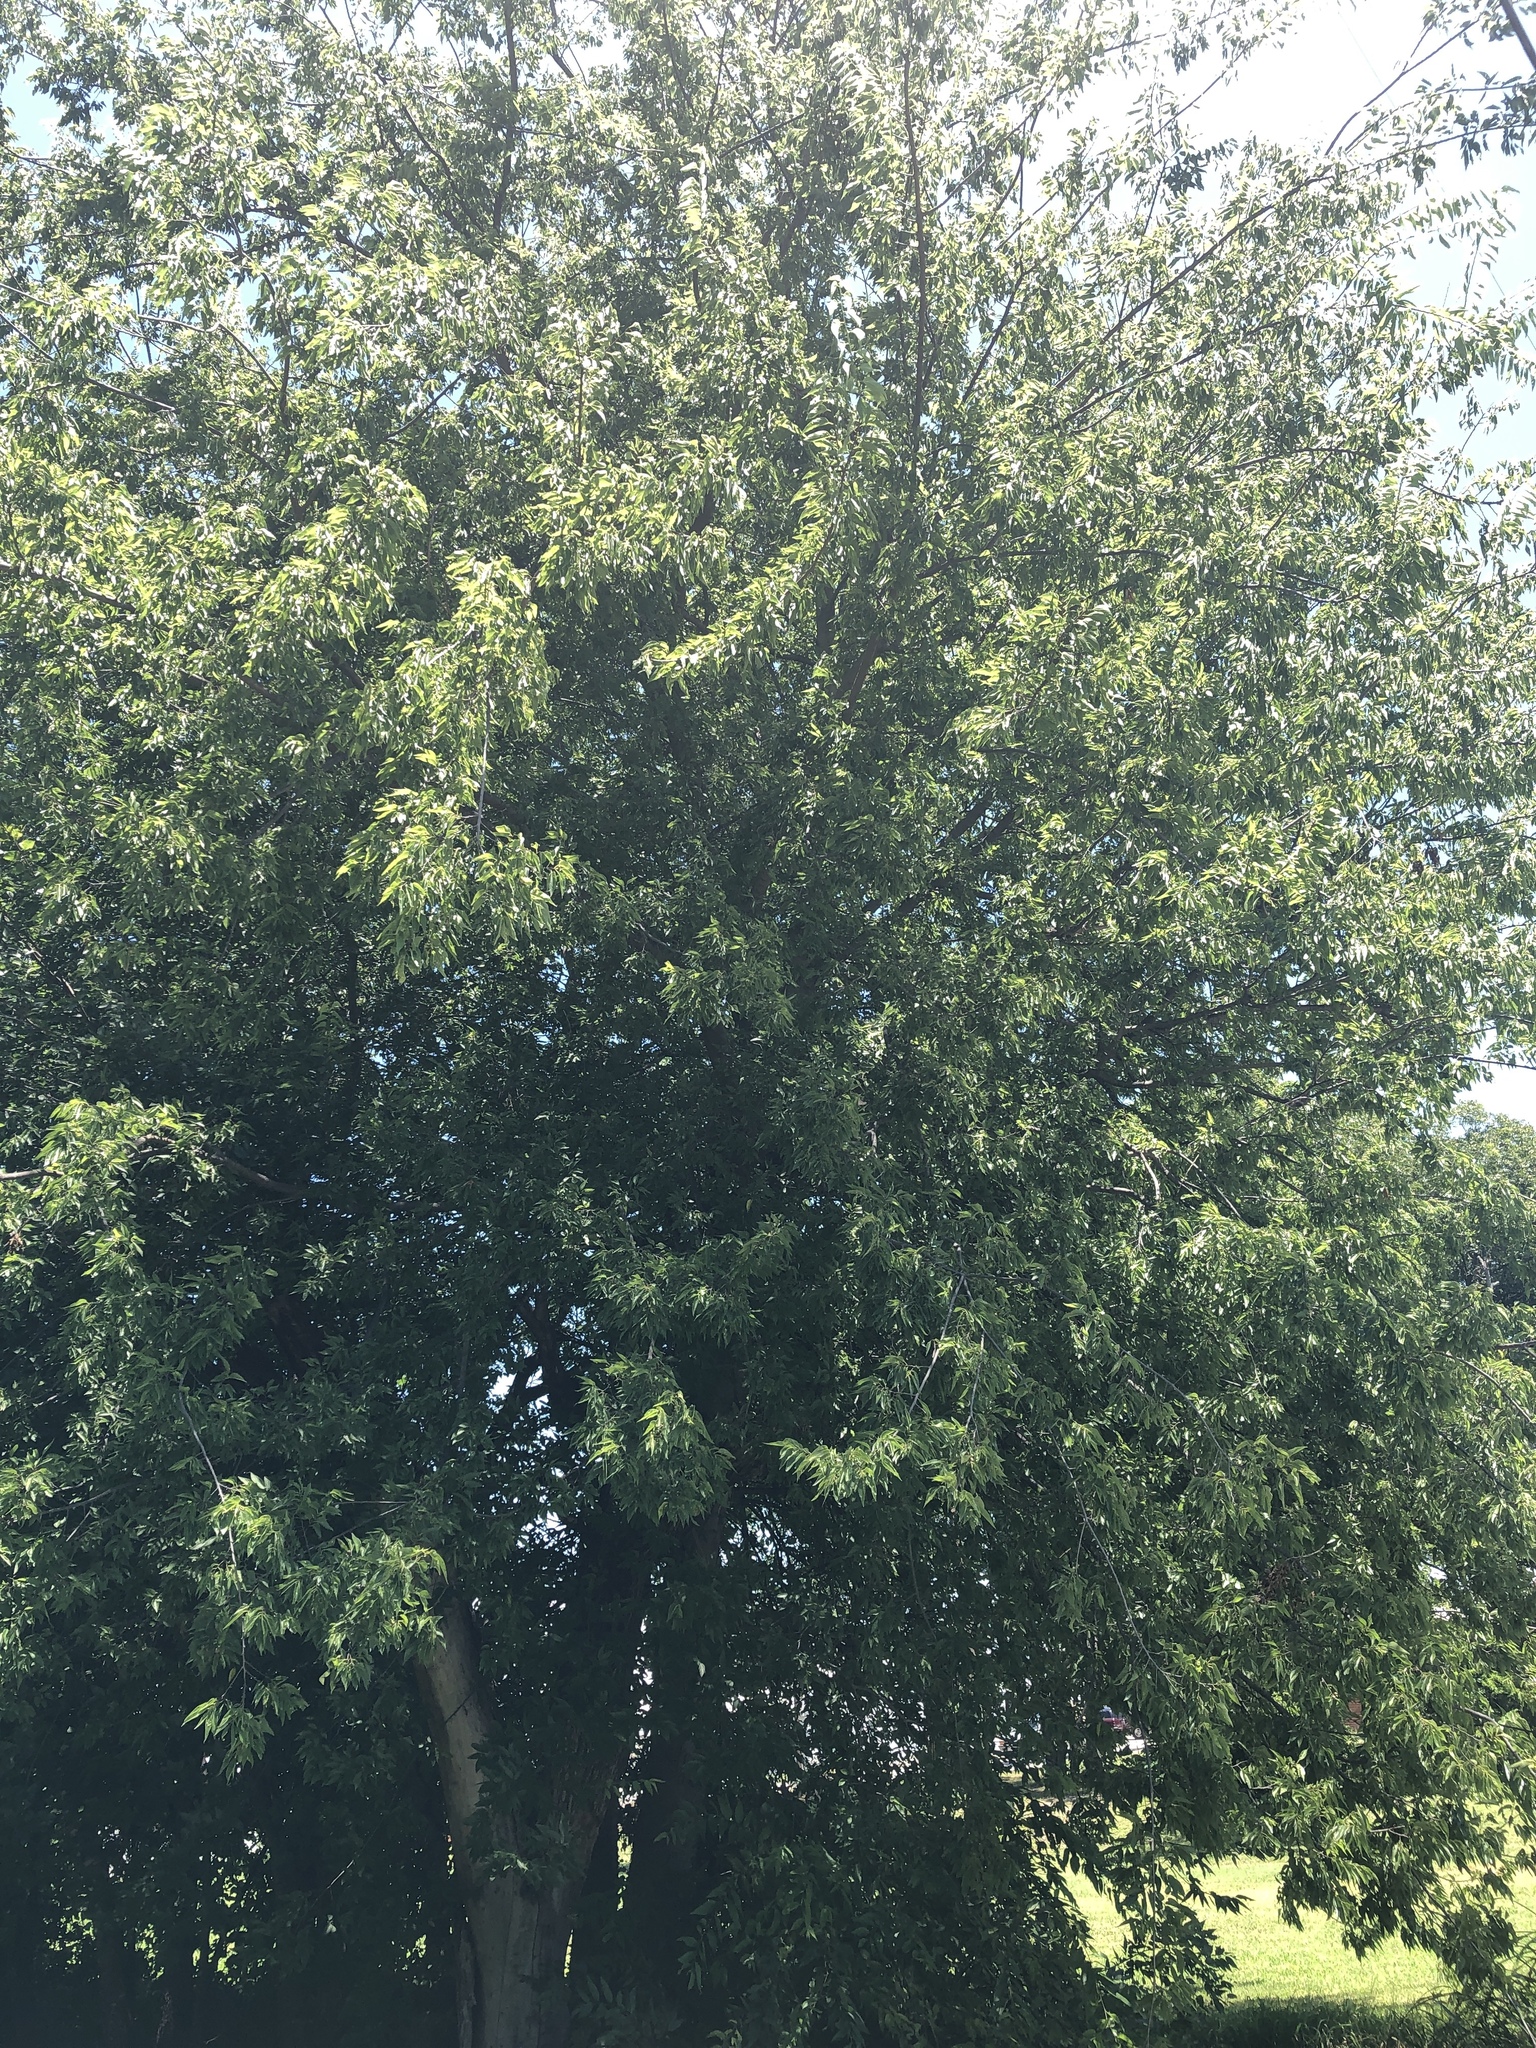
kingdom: Plantae
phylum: Tracheophyta
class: Magnoliopsida
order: Rosales
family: Cannabaceae
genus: Celtis
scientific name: Celtis laevigata
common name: Sugarberry
